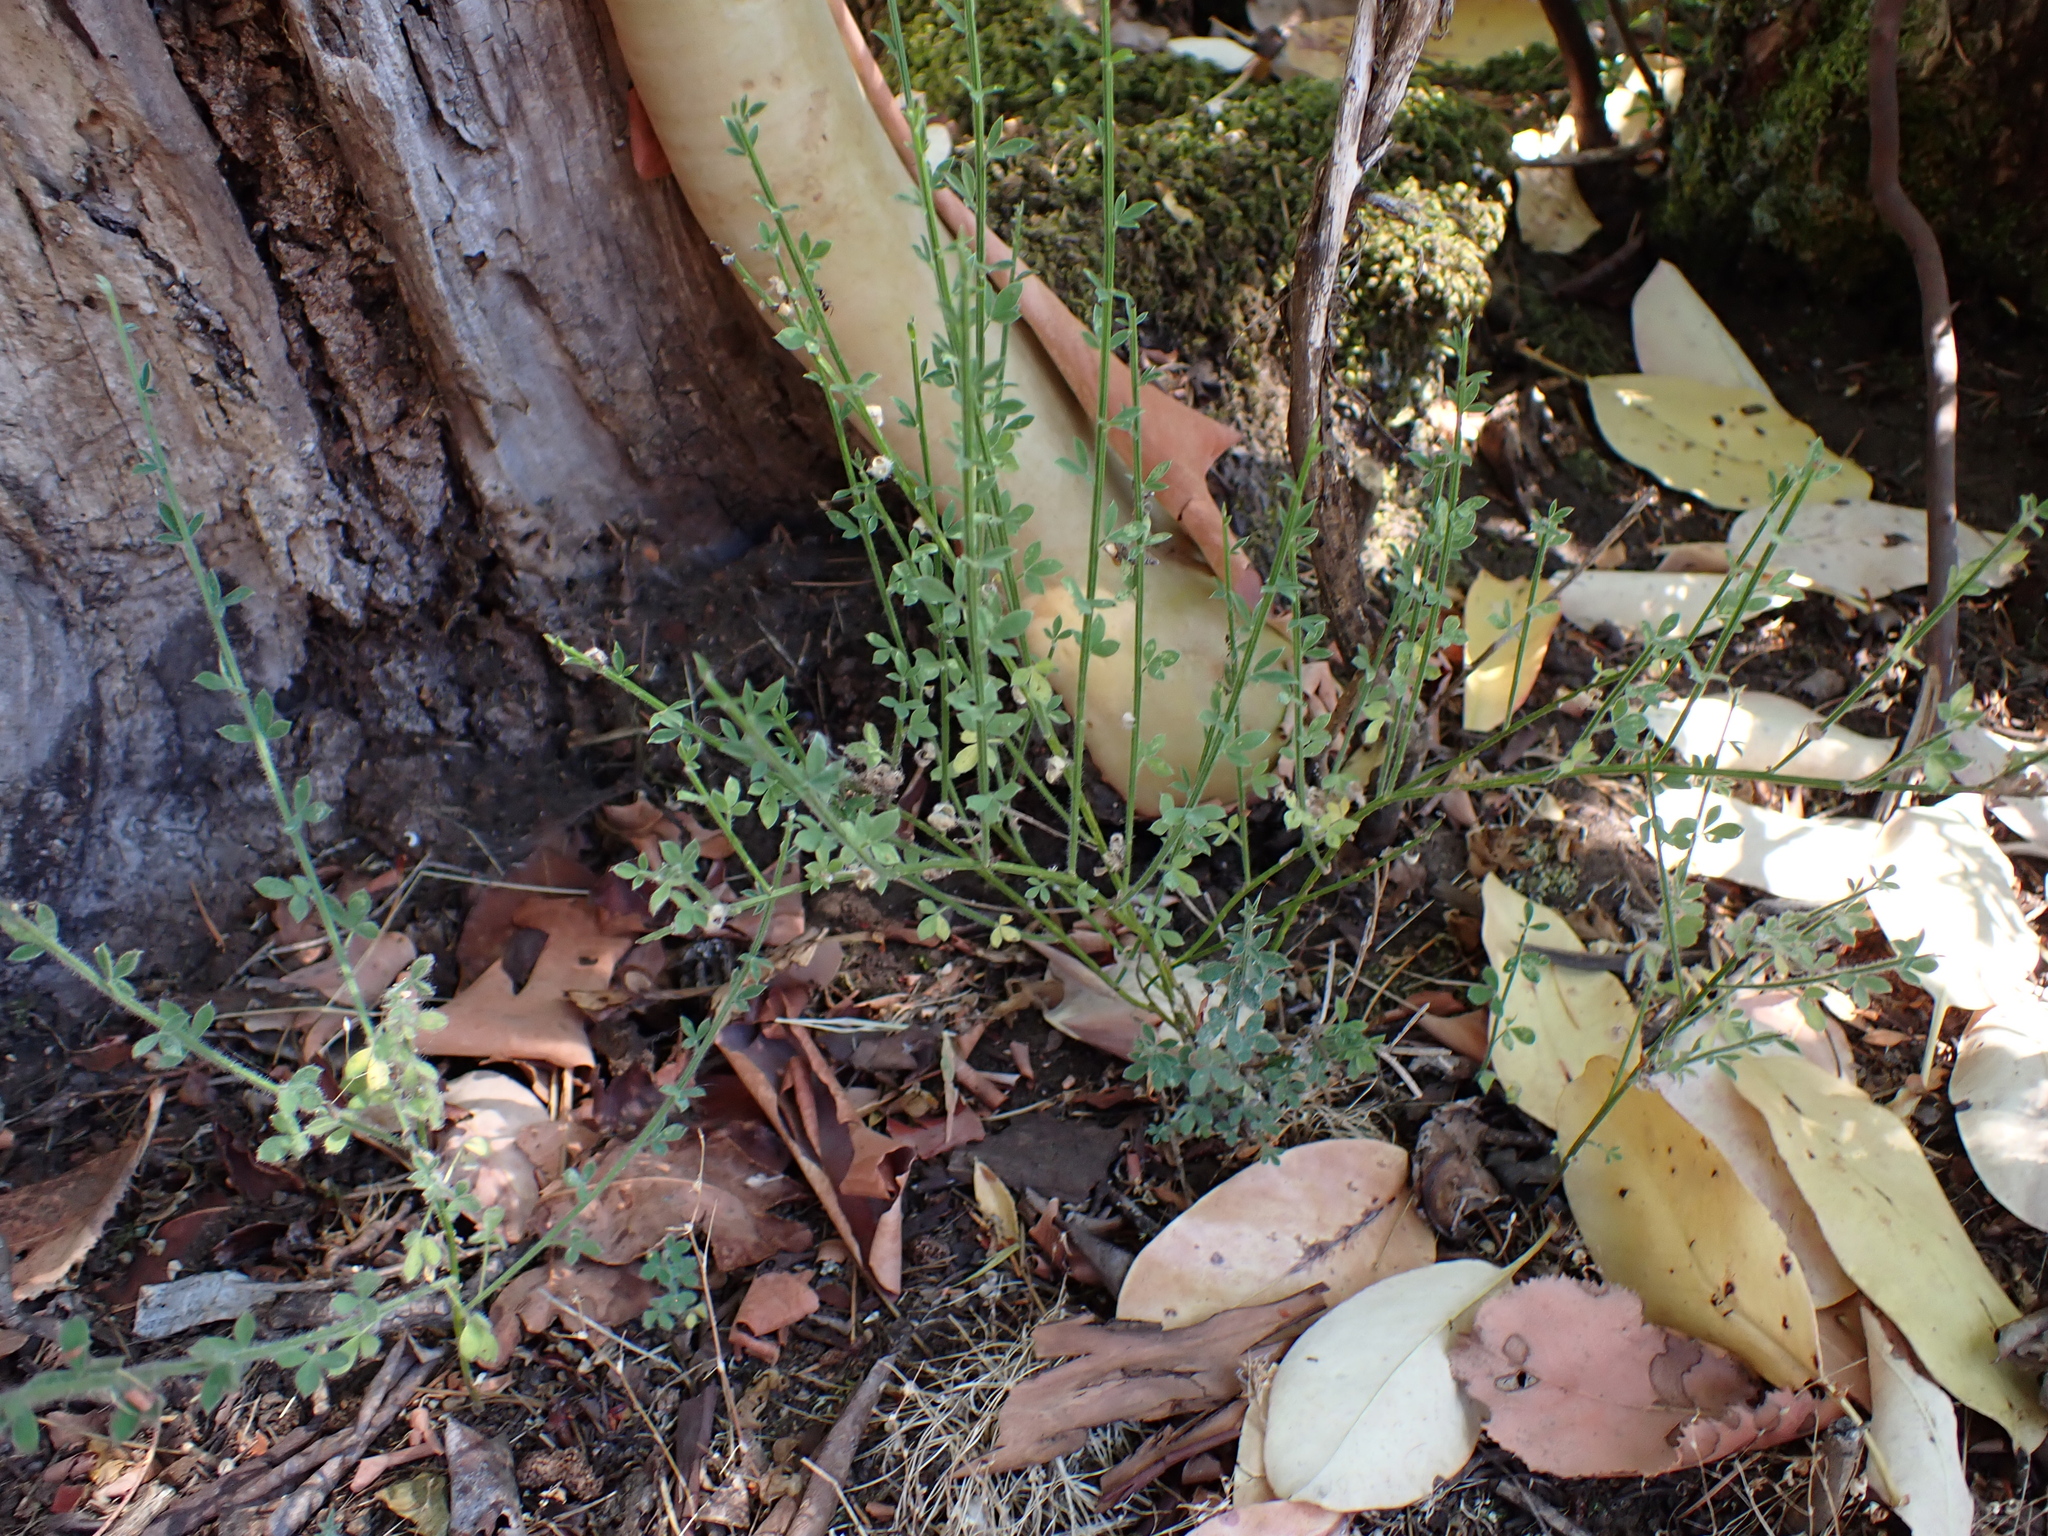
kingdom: Plantae
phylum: Tracheophyta
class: Magnoliopsida
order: Fabales
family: Fabaceae
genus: Cytisus
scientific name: Cytisus scoparius
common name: Scotch broom
